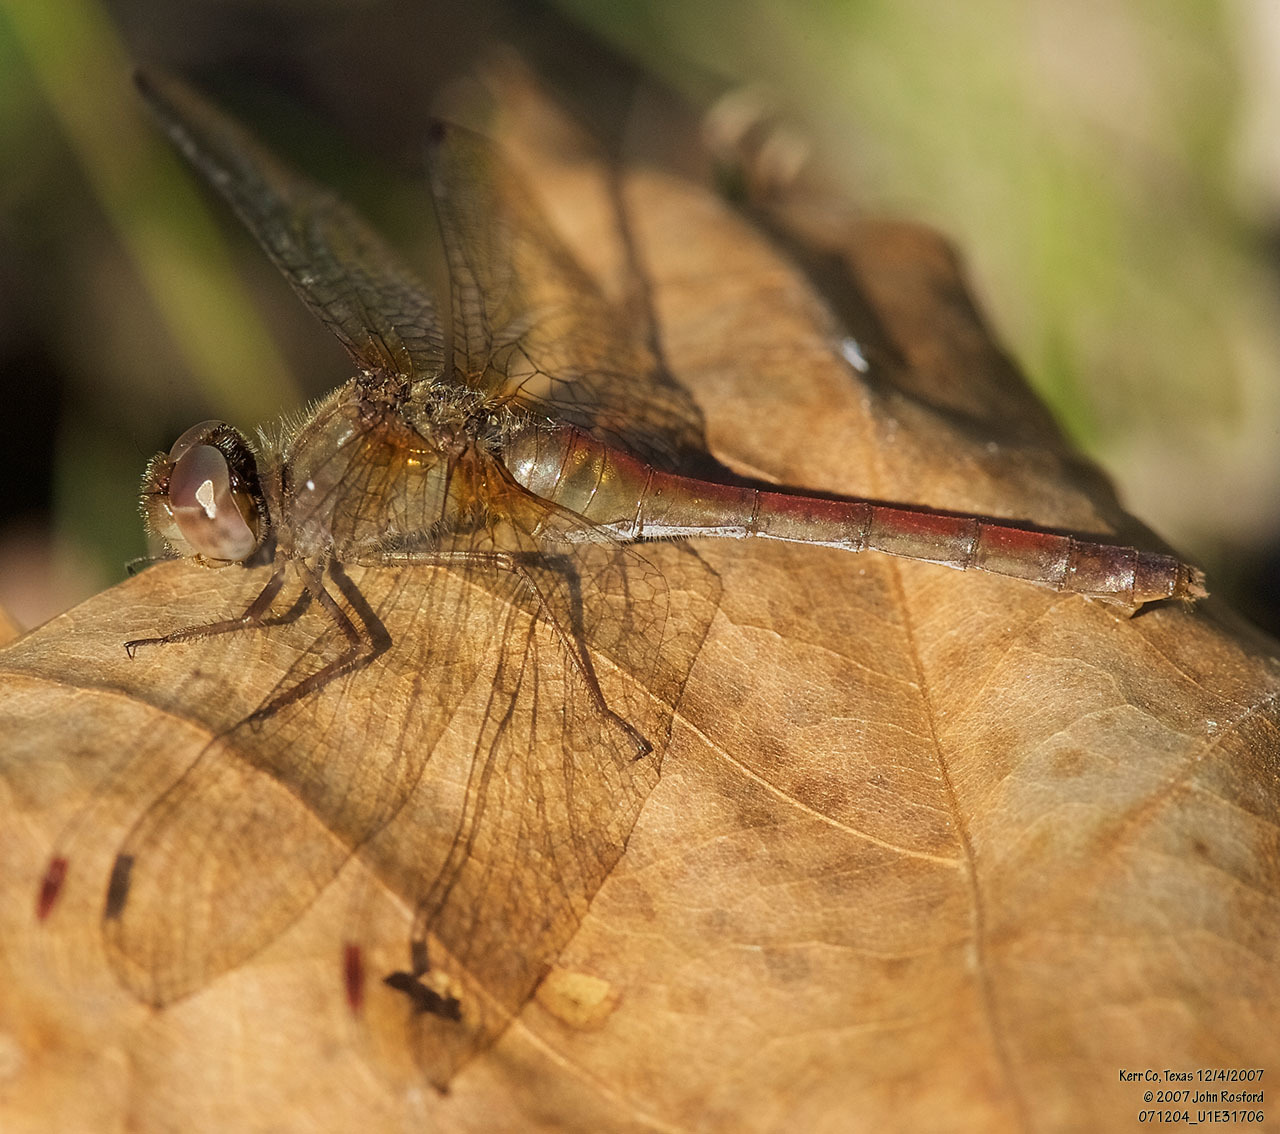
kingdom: Animalia
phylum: Arthropoda
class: Insecta
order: Odonata
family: Libellulidae
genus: Sympetrum
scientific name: Sympetrum vicinum
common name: Autumn meadowhawk
